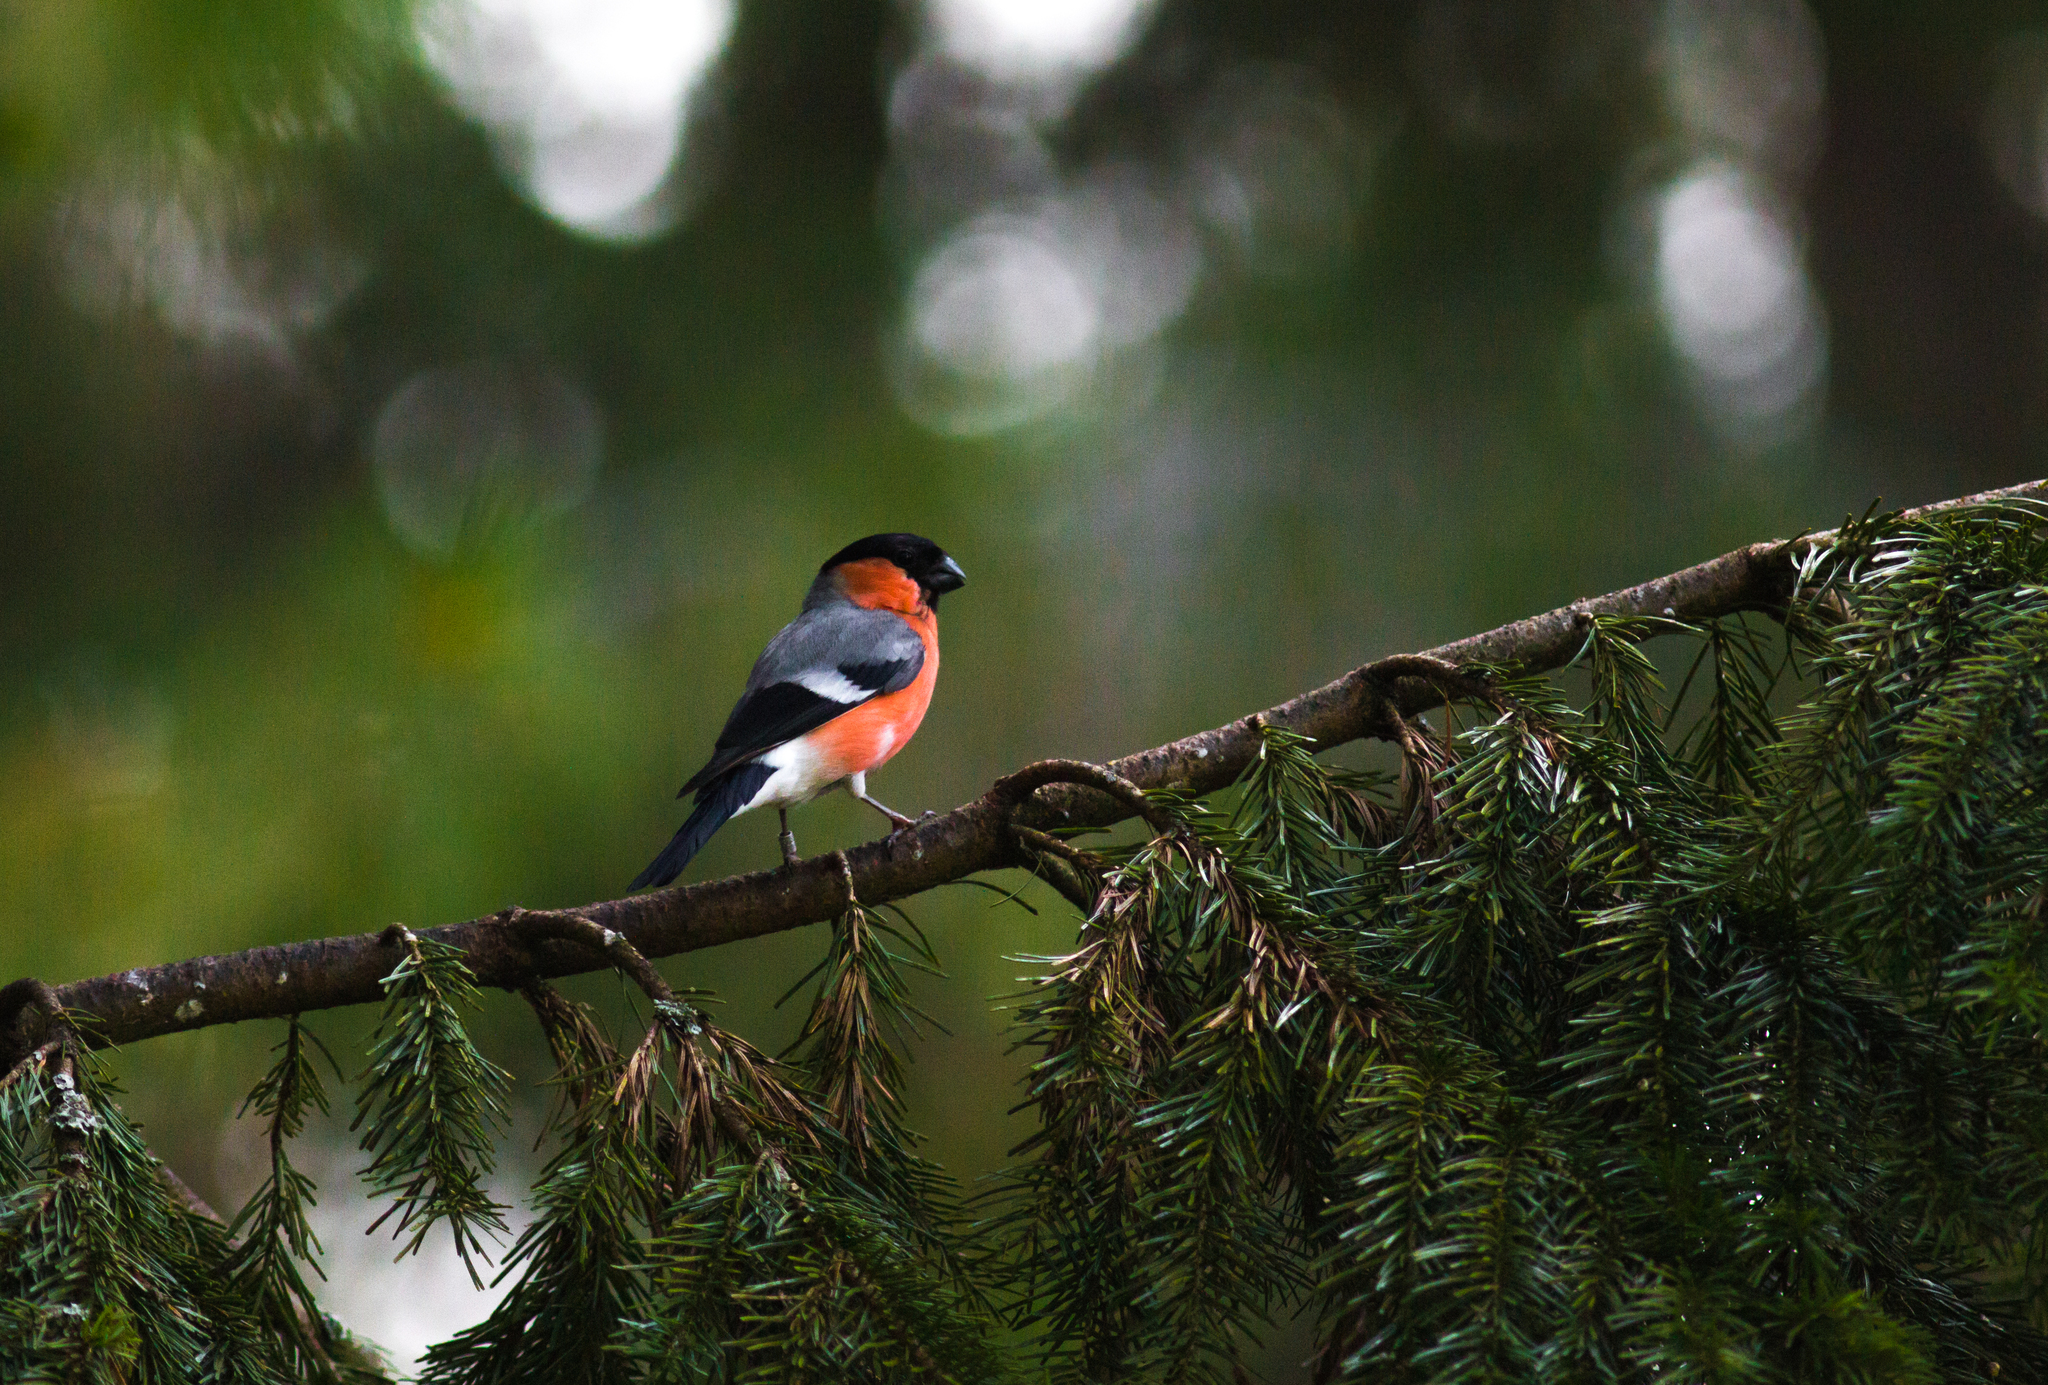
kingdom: Animalia
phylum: Chordata
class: Aves
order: Passeriformes
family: Fringillidae
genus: Pyrrhula
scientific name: Pyrrhula pyrrhula
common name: Eurasian bullfinch
